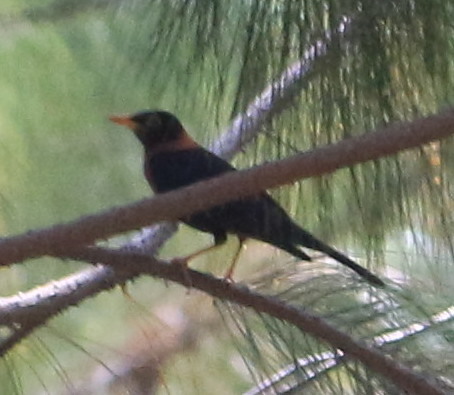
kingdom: Animalia
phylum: Chordata
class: Aves
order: Passeriformes
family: Turdidae
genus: Turdus
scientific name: Turdus rufitorques
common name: Rufous-collared thrush
